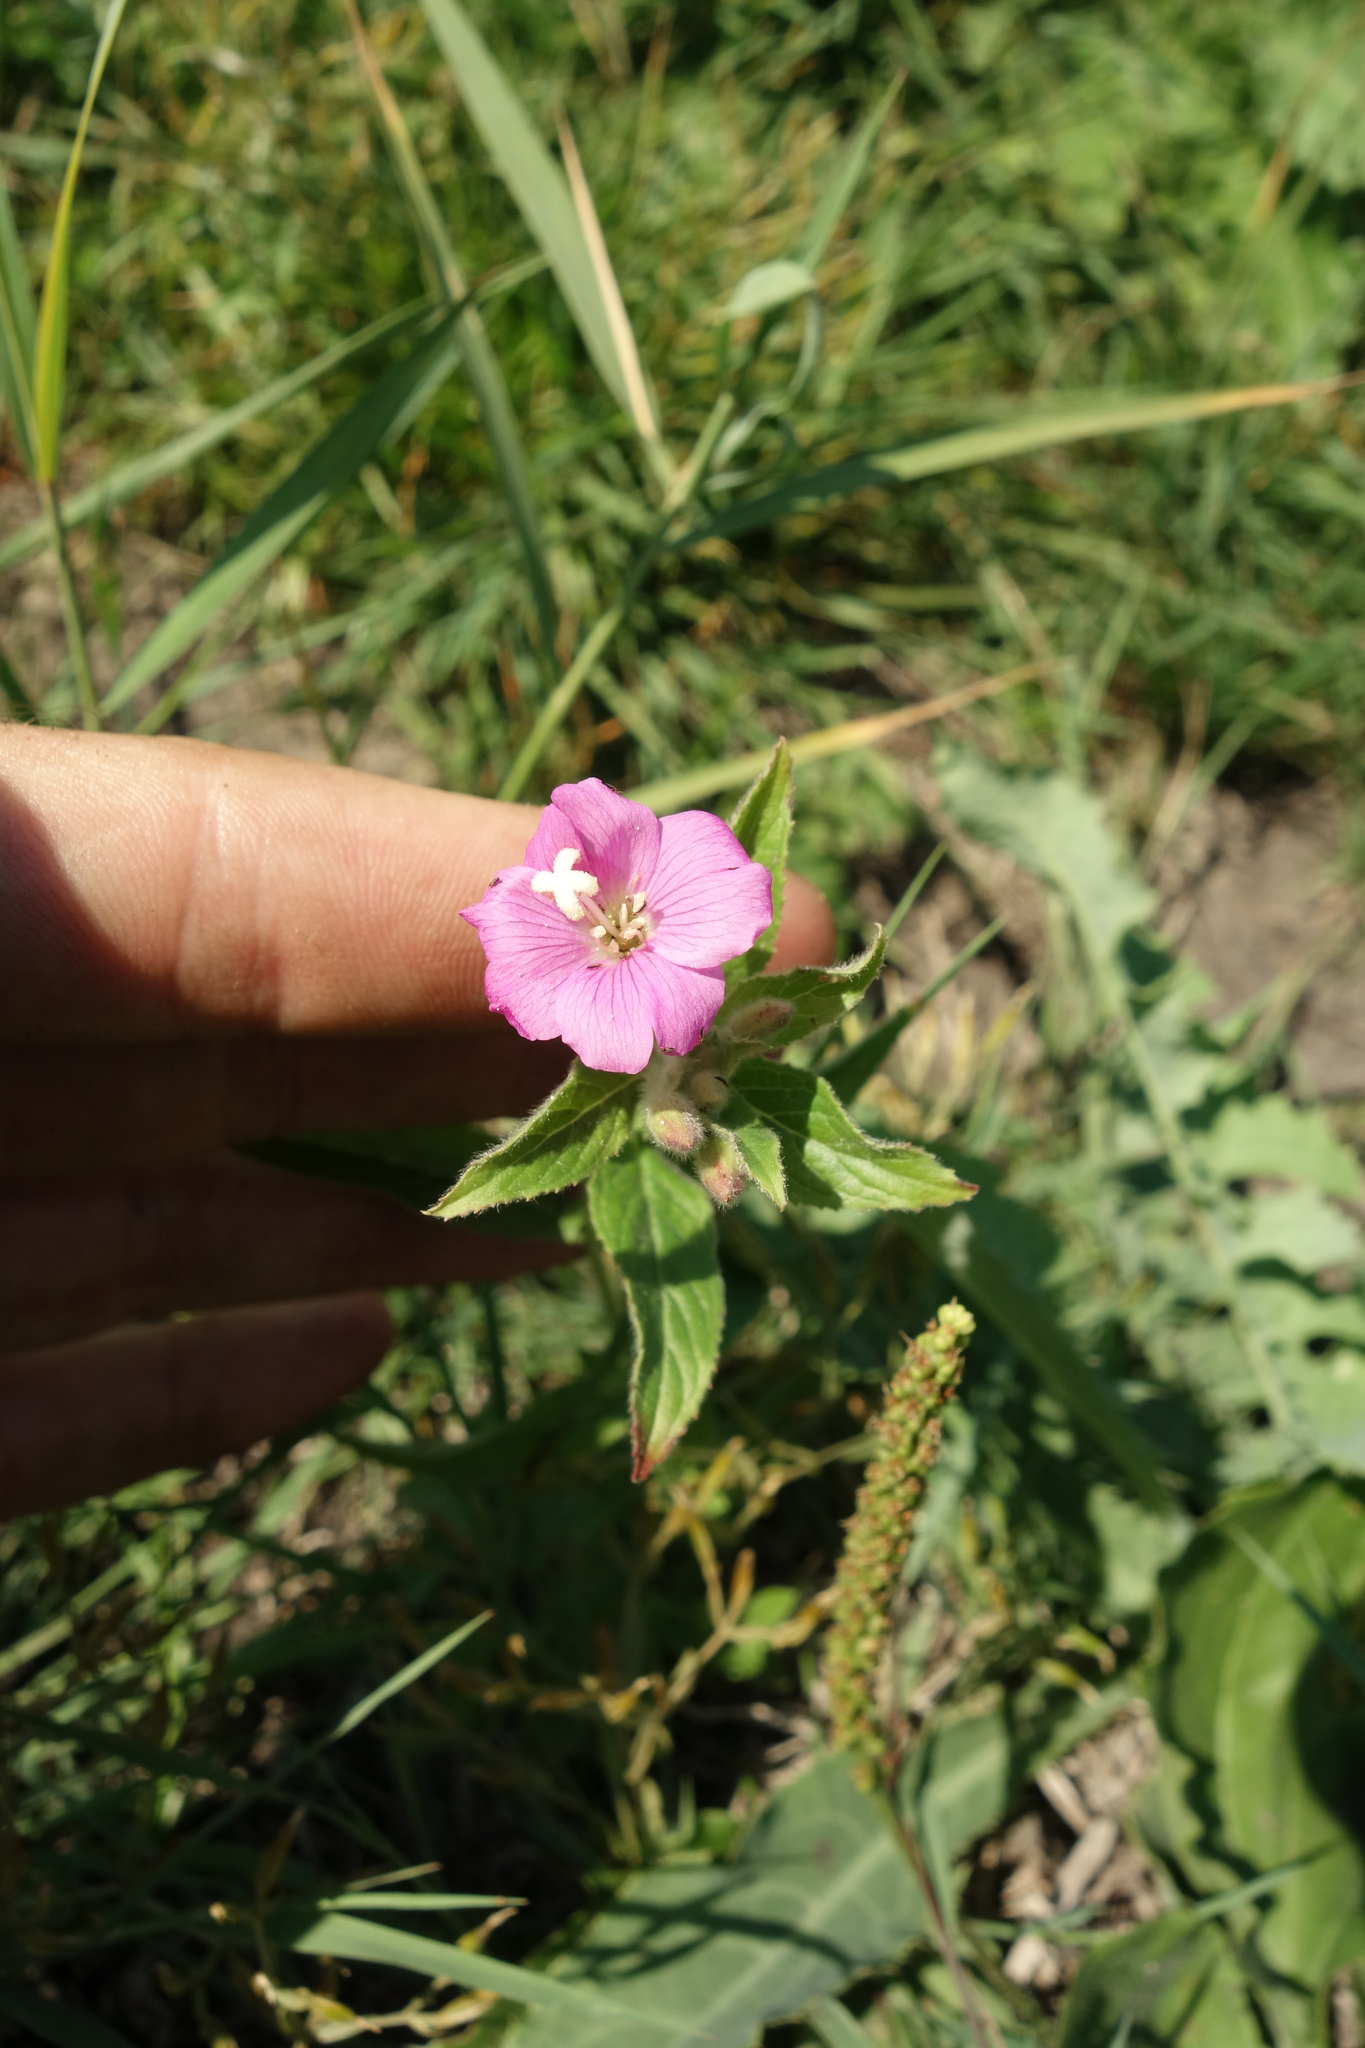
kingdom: Plantae
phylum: Tracheophyta
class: Magnoliopsida
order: Myrtales
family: Onagraceae
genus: Epilobium
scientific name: Epilobium hirsutum
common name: Great willowherb
